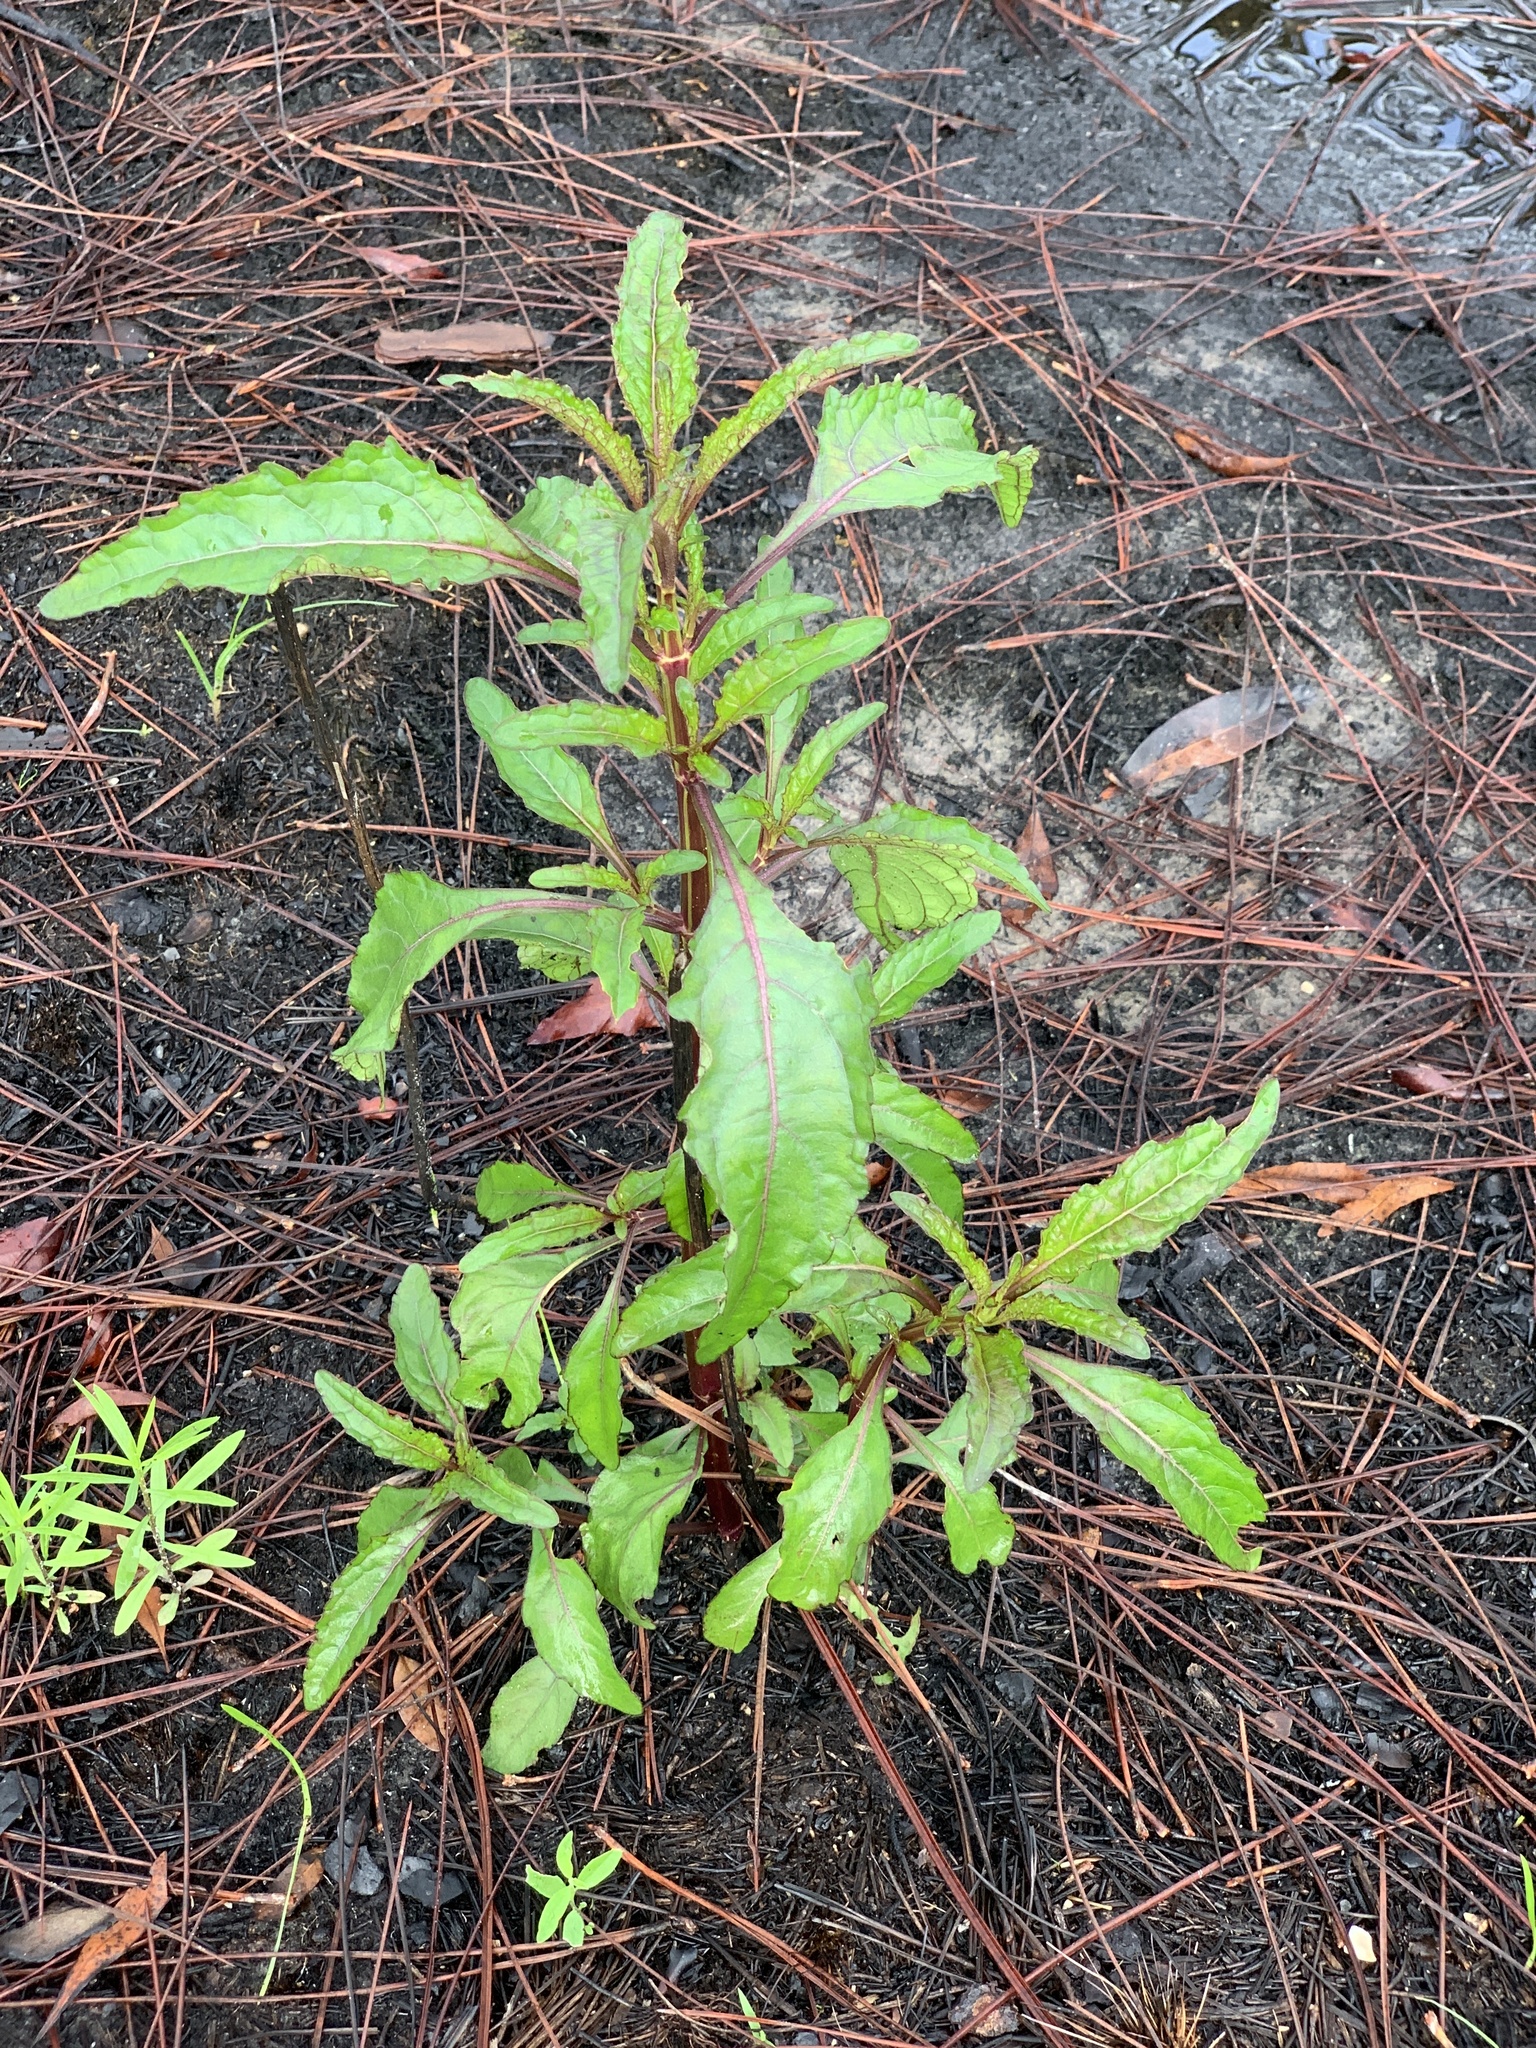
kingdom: Plantae
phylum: Tracheophyta
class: Magnoliopsida
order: Lamiales
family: Lamiaceae
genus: Hyptis
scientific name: Hyptis alata
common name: Cluster bush-mint
